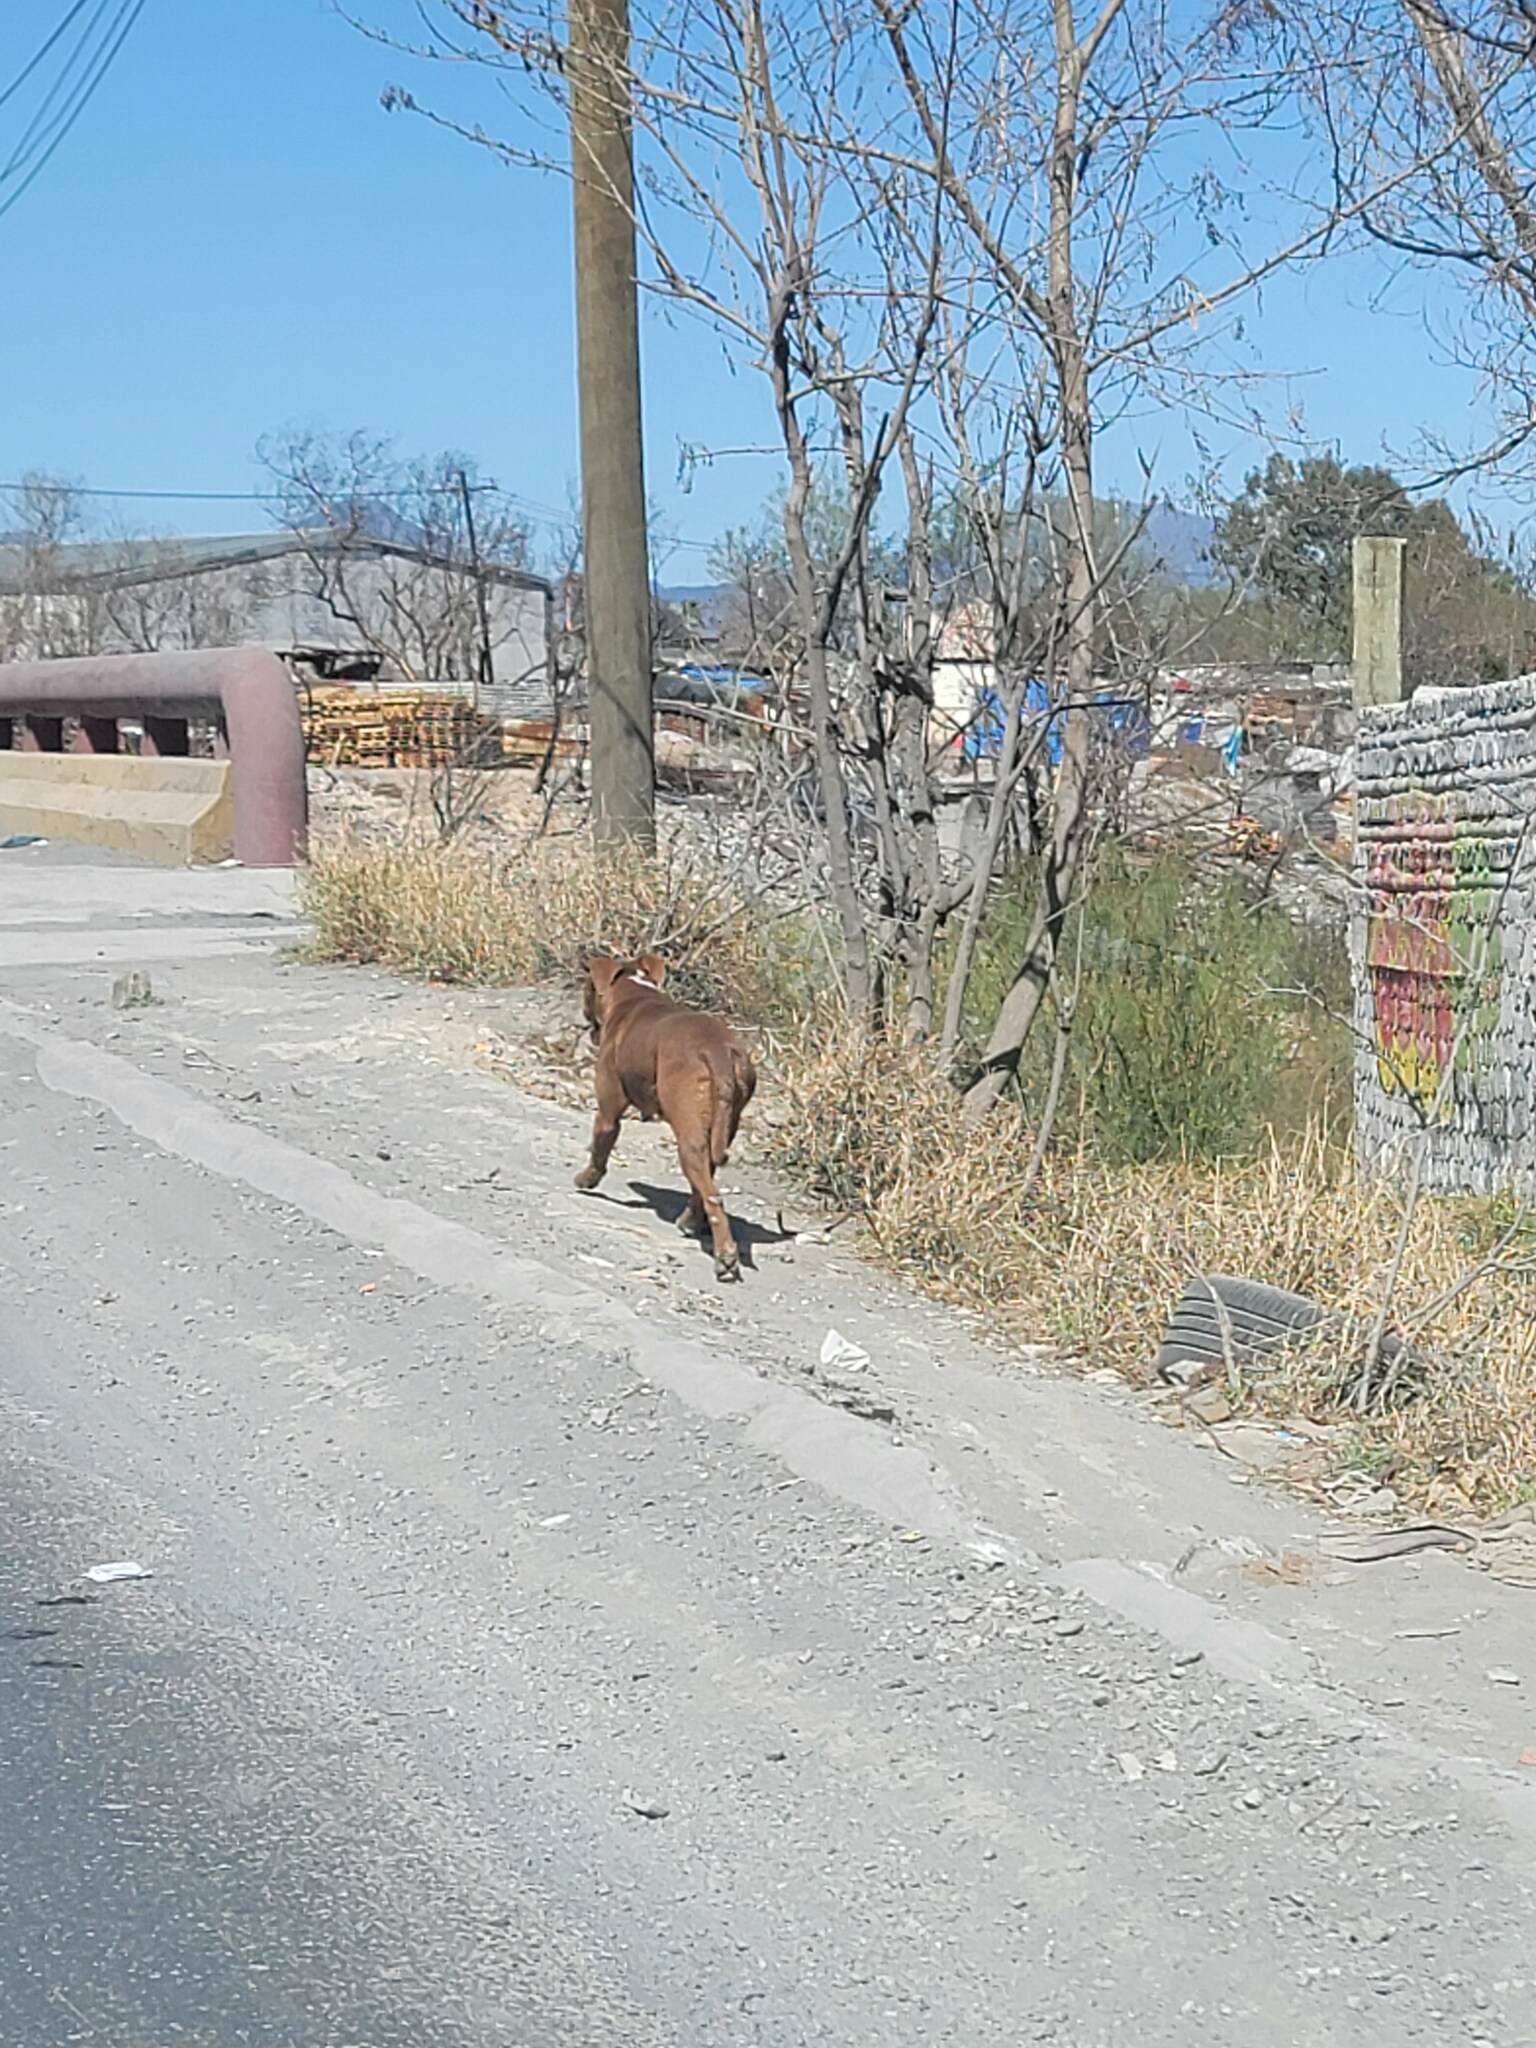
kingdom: Animalia
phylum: Chordata
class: Mammalia
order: Carnivora
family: Canidae
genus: Canis
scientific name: Canis lupus
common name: Gray wolf
